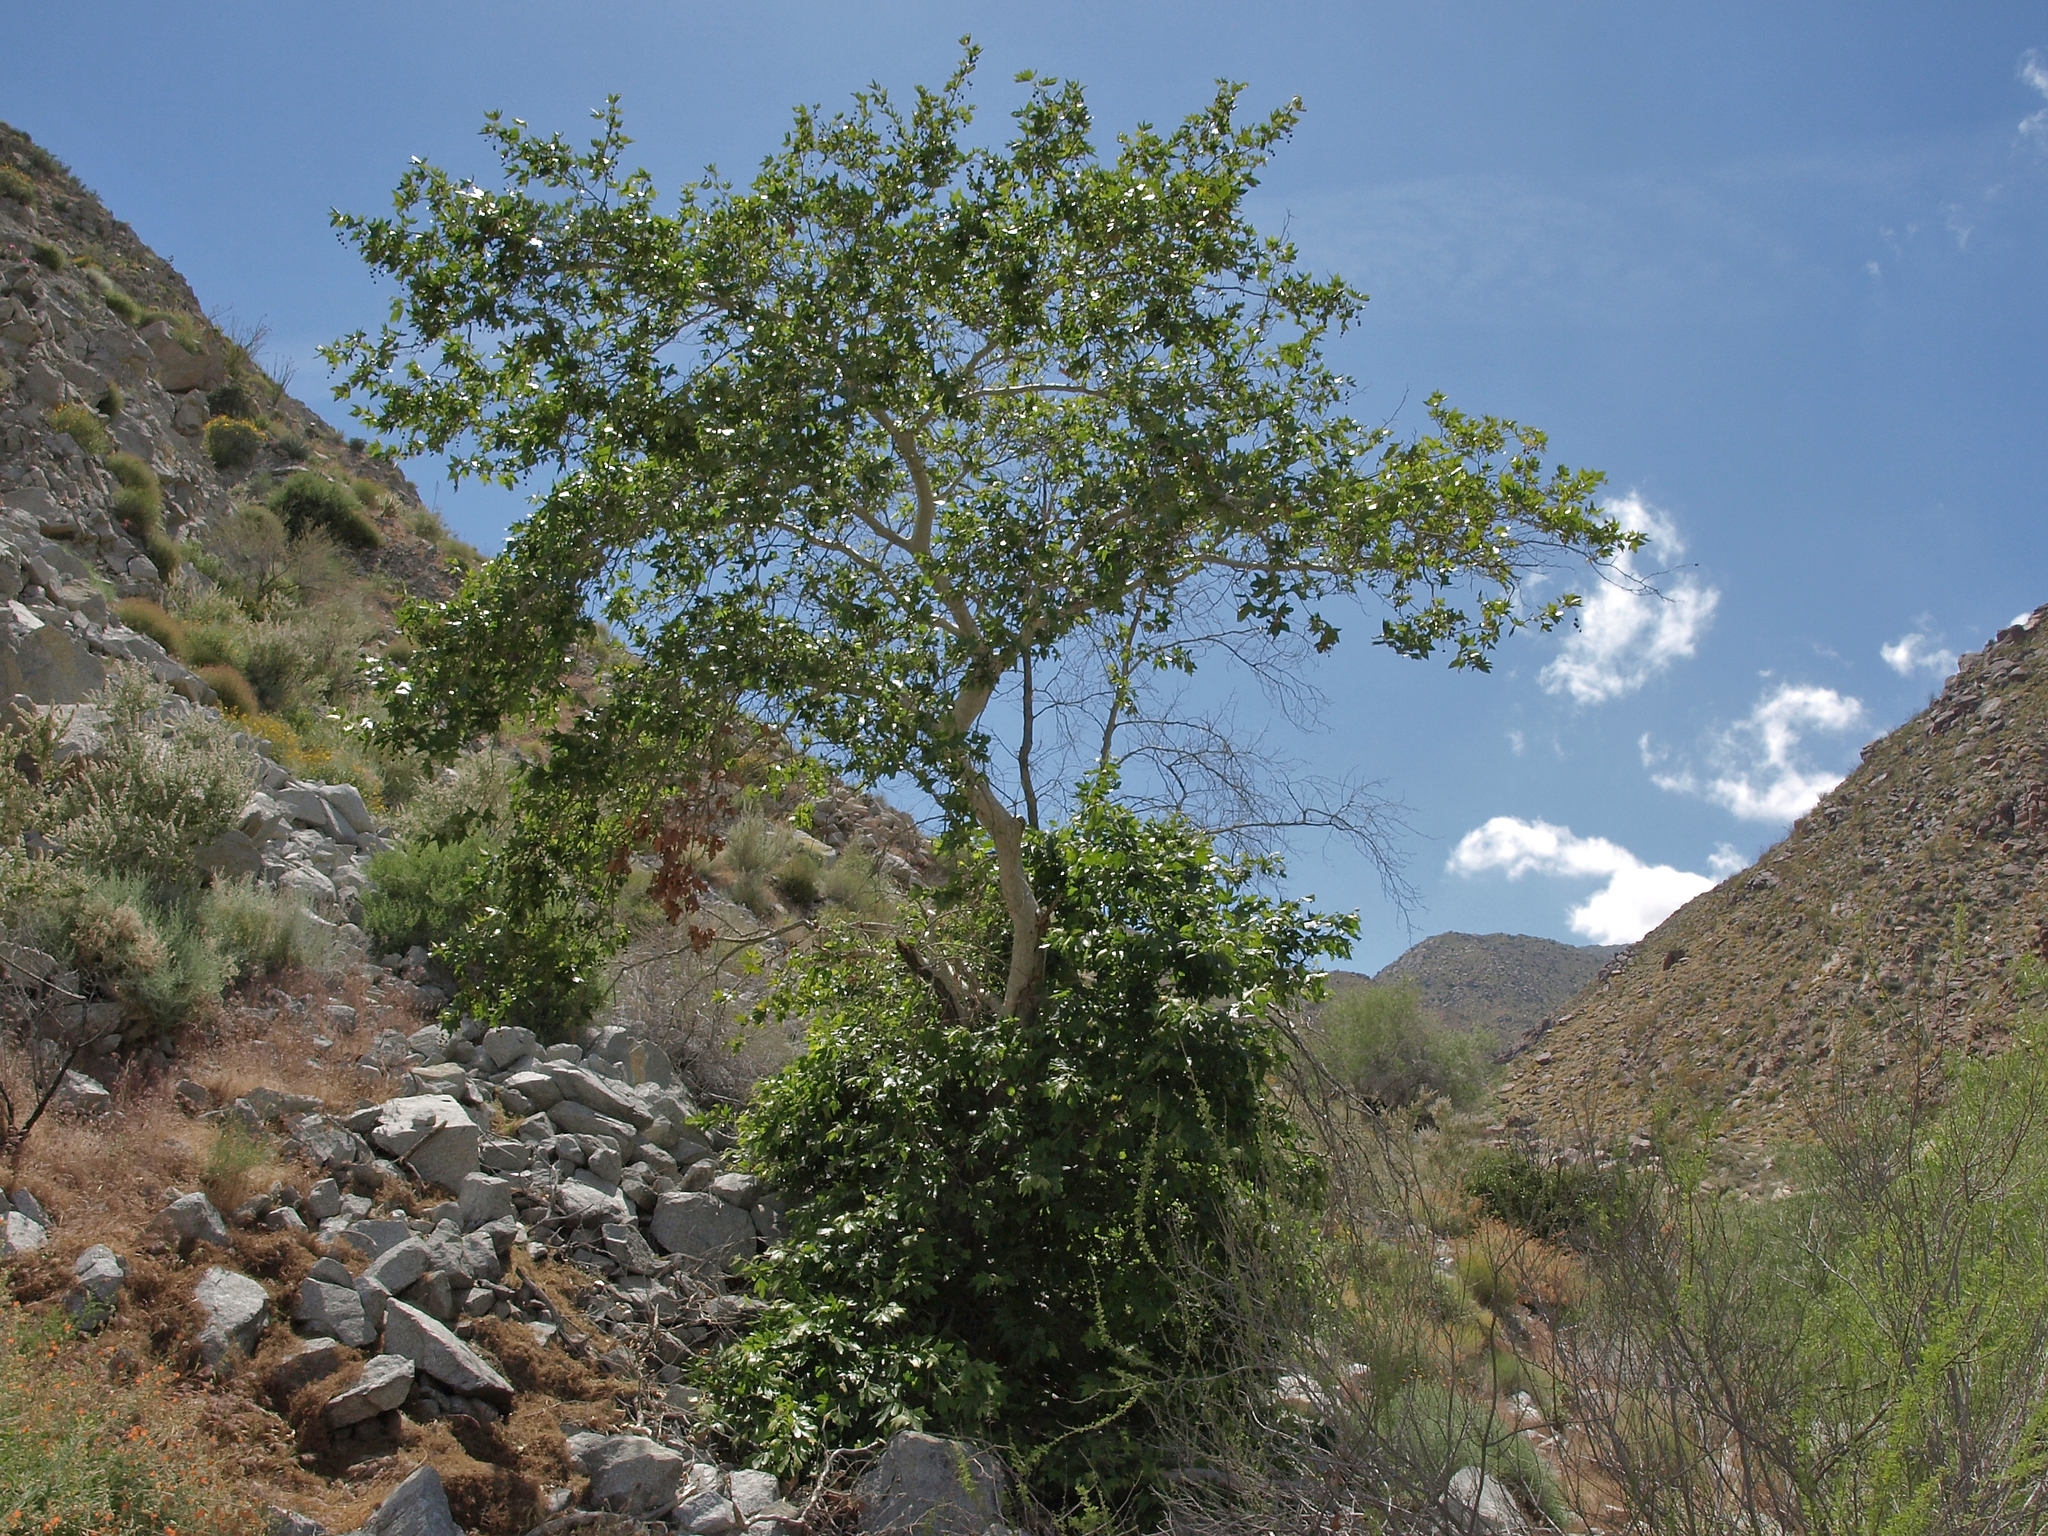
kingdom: Plantae
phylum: Tracheophyta
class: Magnoliopsida
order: Proteales
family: Platanaceae
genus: Platanus
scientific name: Platanus racemosa
